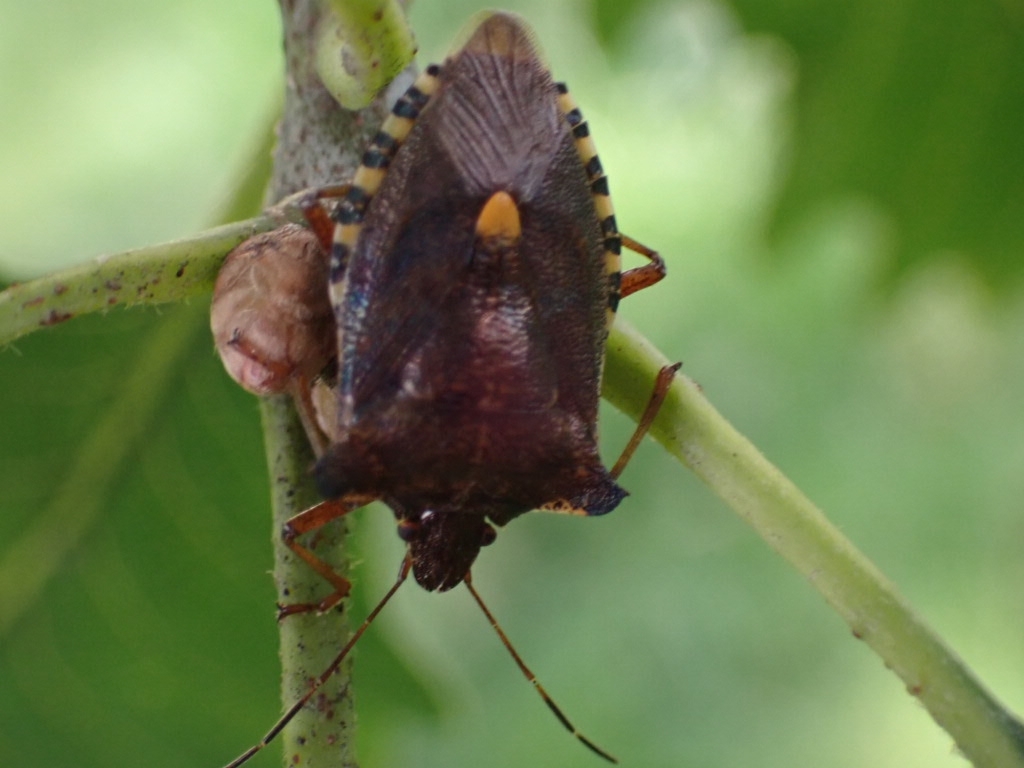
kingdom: Animalia
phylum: Arthropoda
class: Insecta
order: Hemiptera
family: Pentatomidae
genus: Pentatoma
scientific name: Pentatoma rufipes
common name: Forest bug
